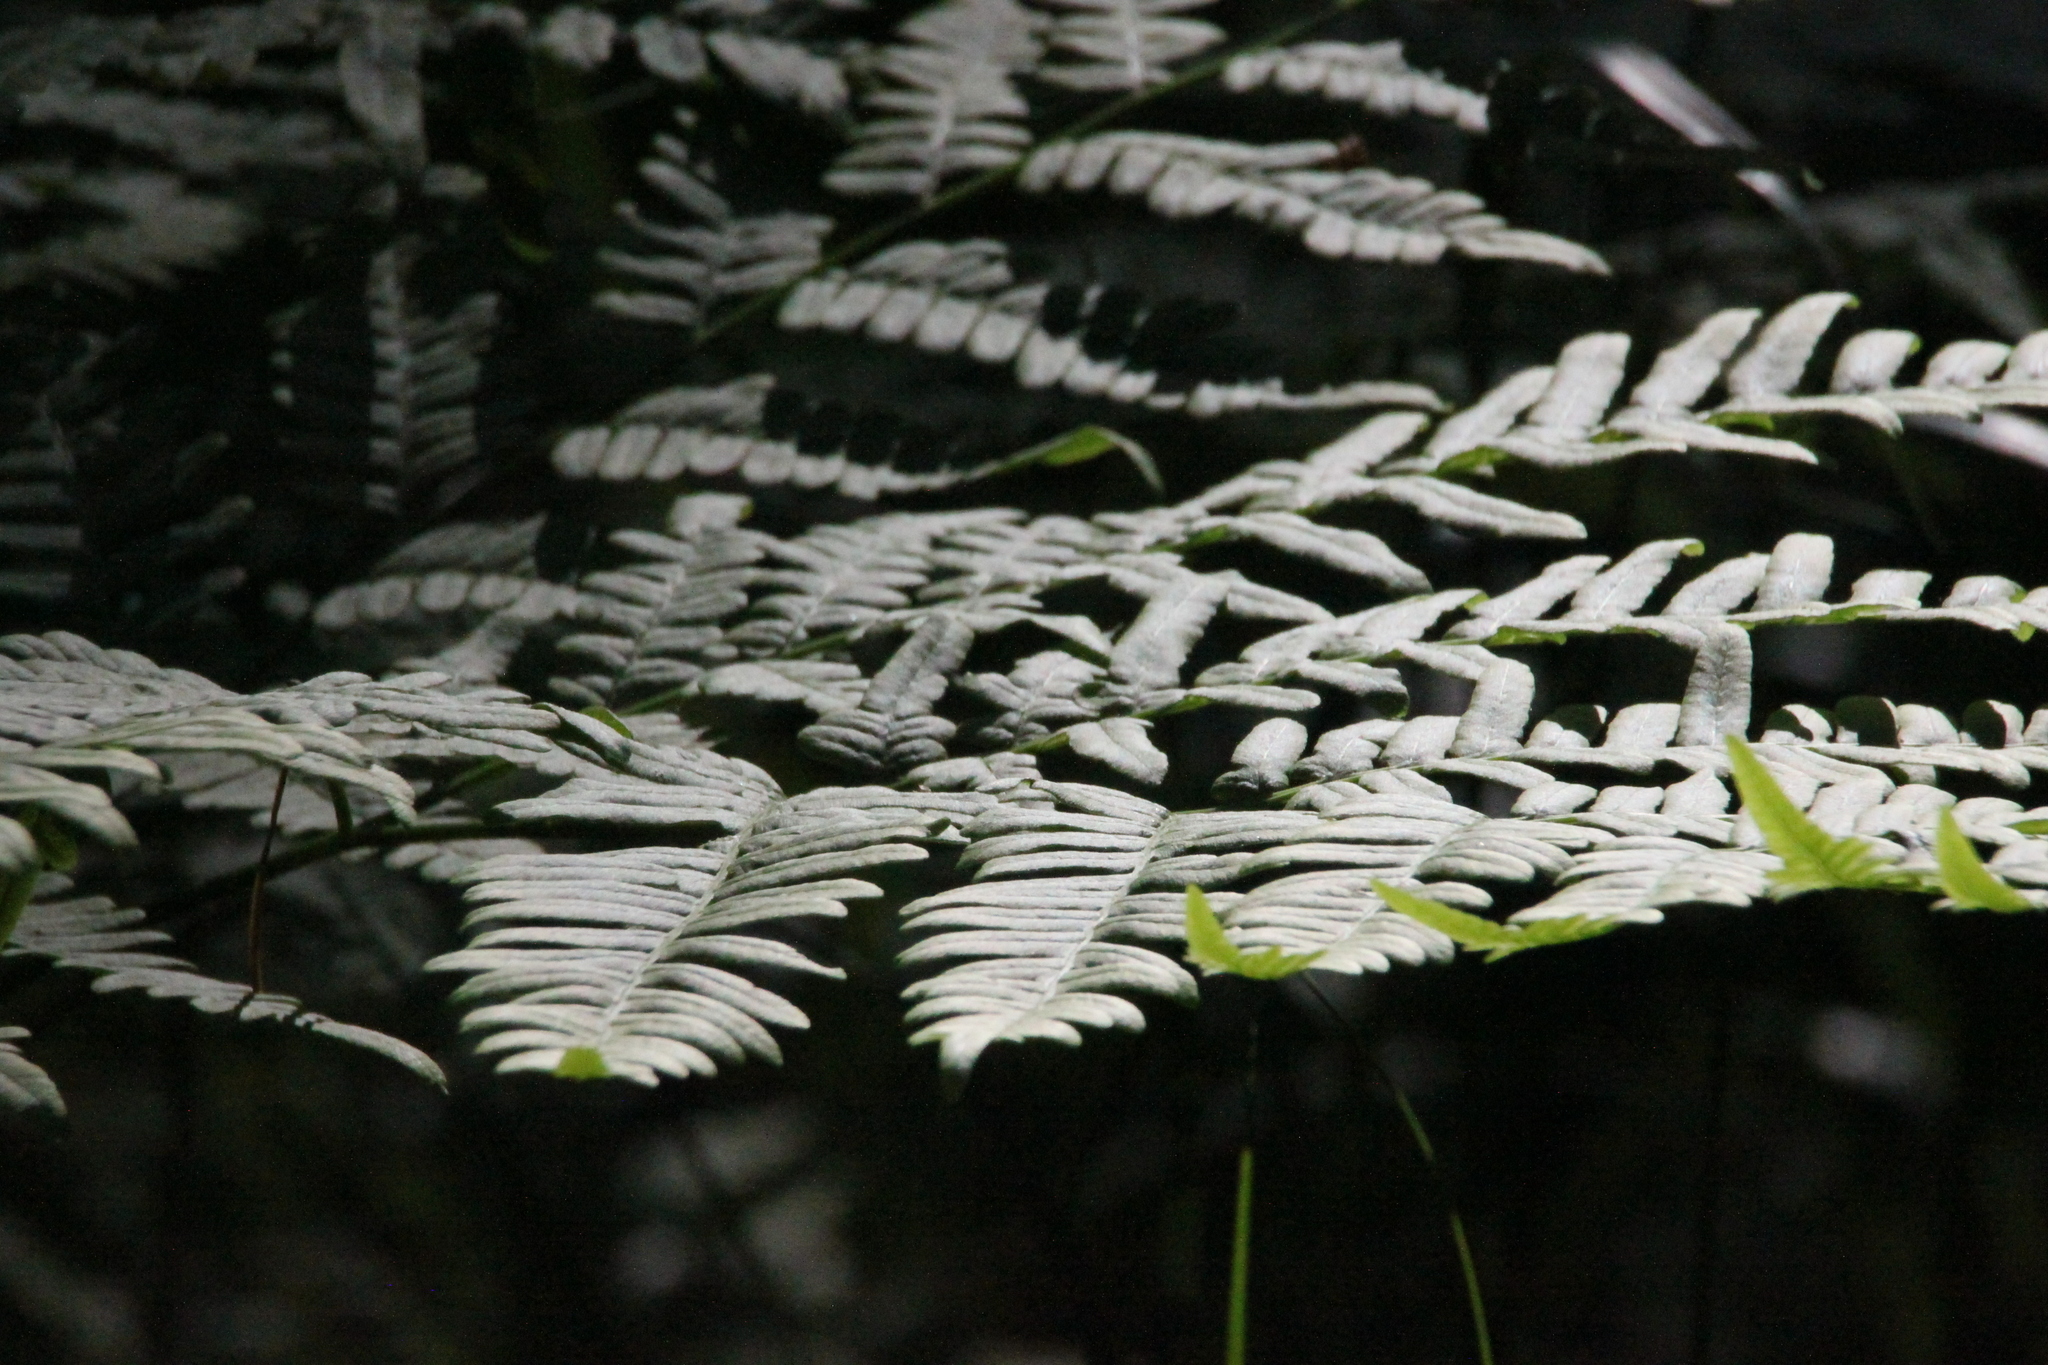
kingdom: Plantae
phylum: Tracheophyta
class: Polypodiopsida
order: Polypodiales
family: Dennstaedtiaceae
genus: Pteridium
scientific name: Pteridium aquilinum
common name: Bracken
